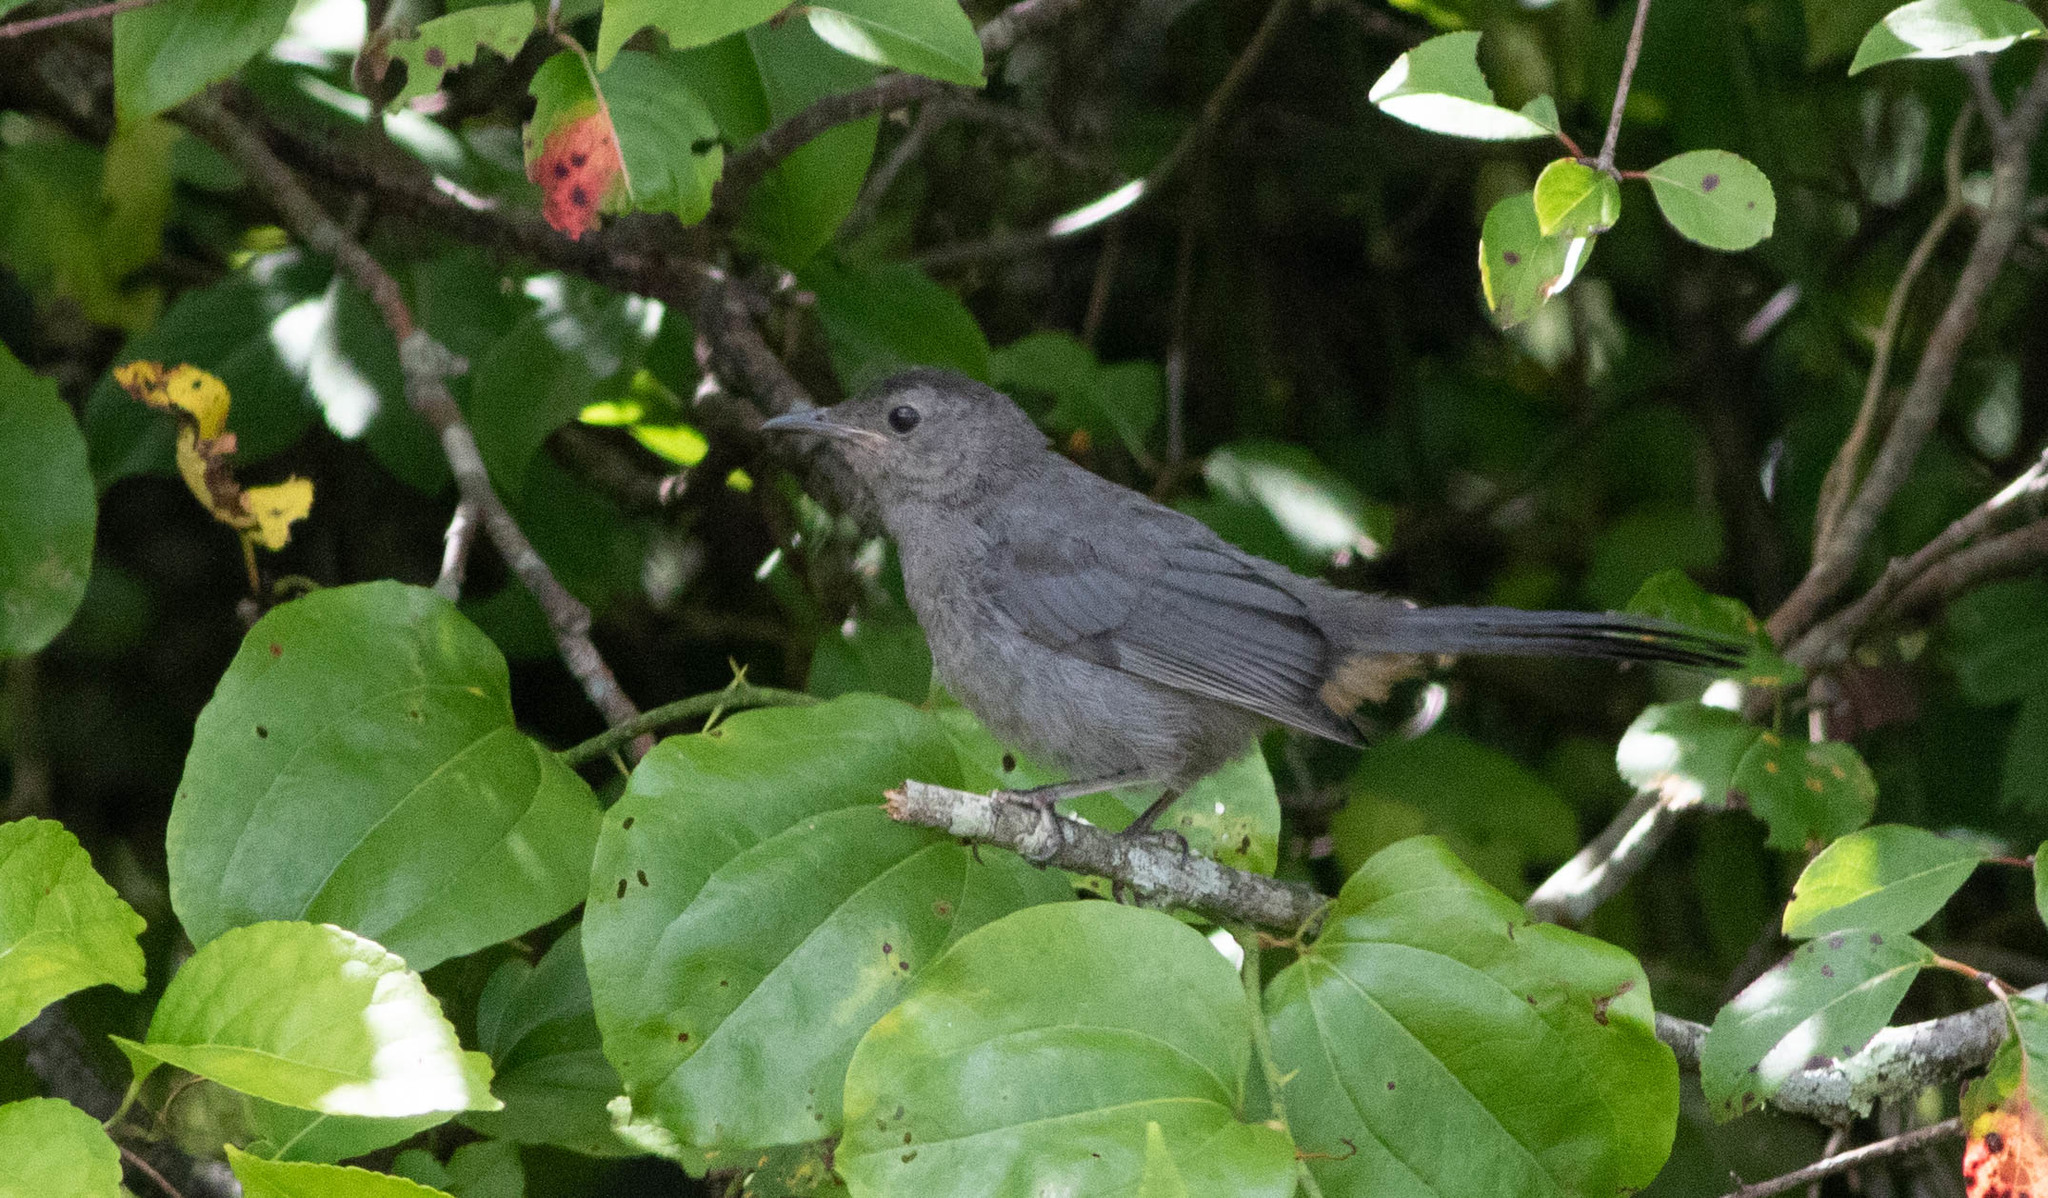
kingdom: Animalia
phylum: Chordata
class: Aves
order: Passeriformes
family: Mimidae
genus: Dumetella
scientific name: Dumetella carolinensis
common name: Gray catbird
